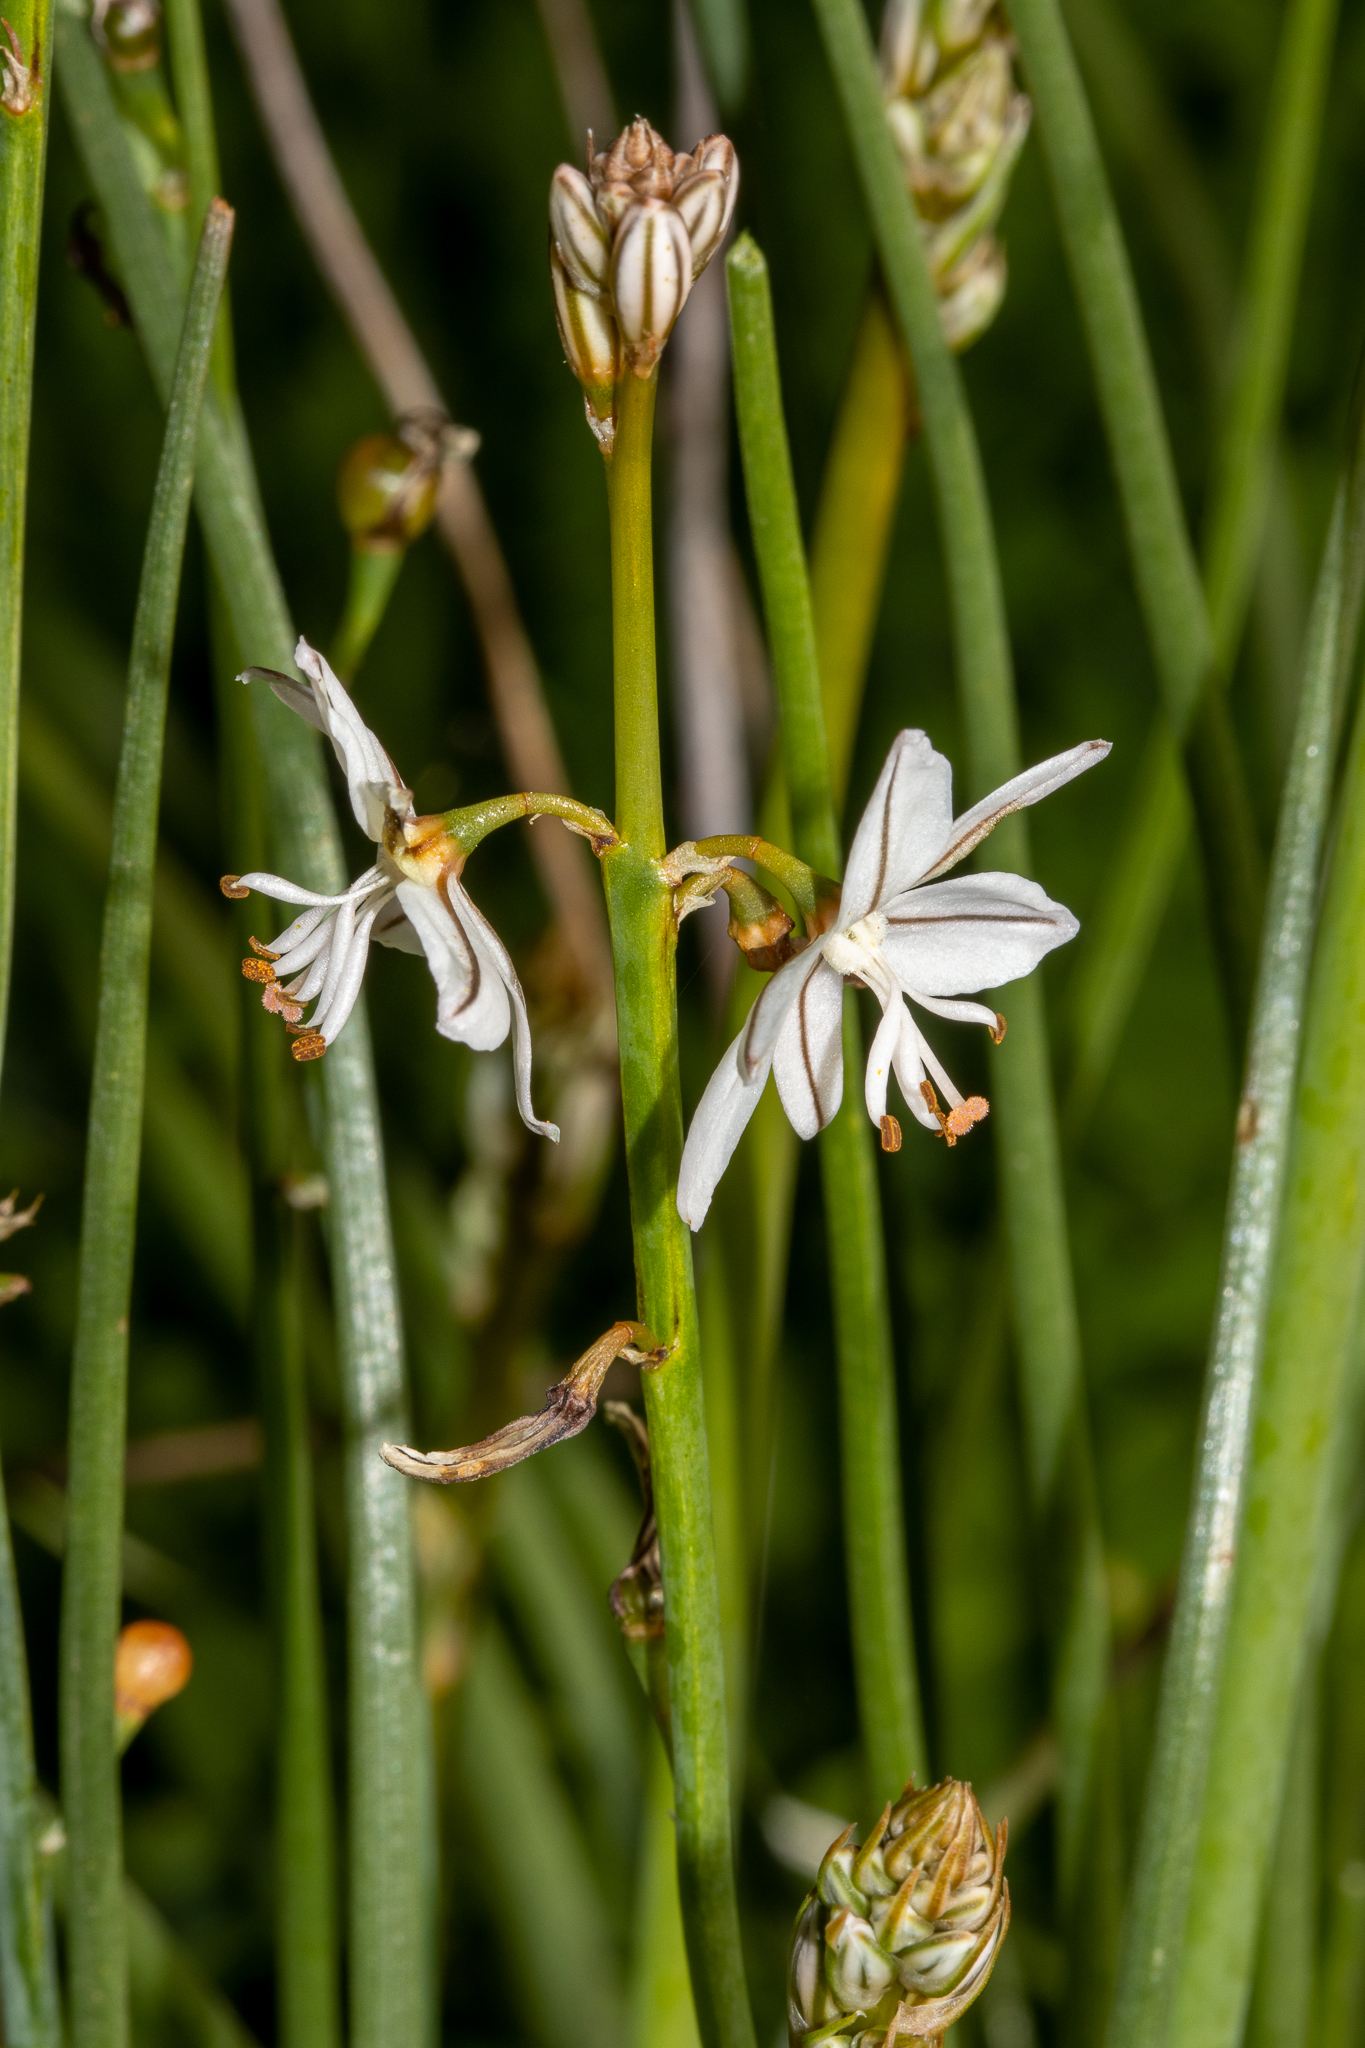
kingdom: Plantae
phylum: Tracheophyta
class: Liliopsida
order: Asparagales
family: Asphodelaceae
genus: Asphodelus
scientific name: Asphodelus fistulosus
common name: Onionweed
